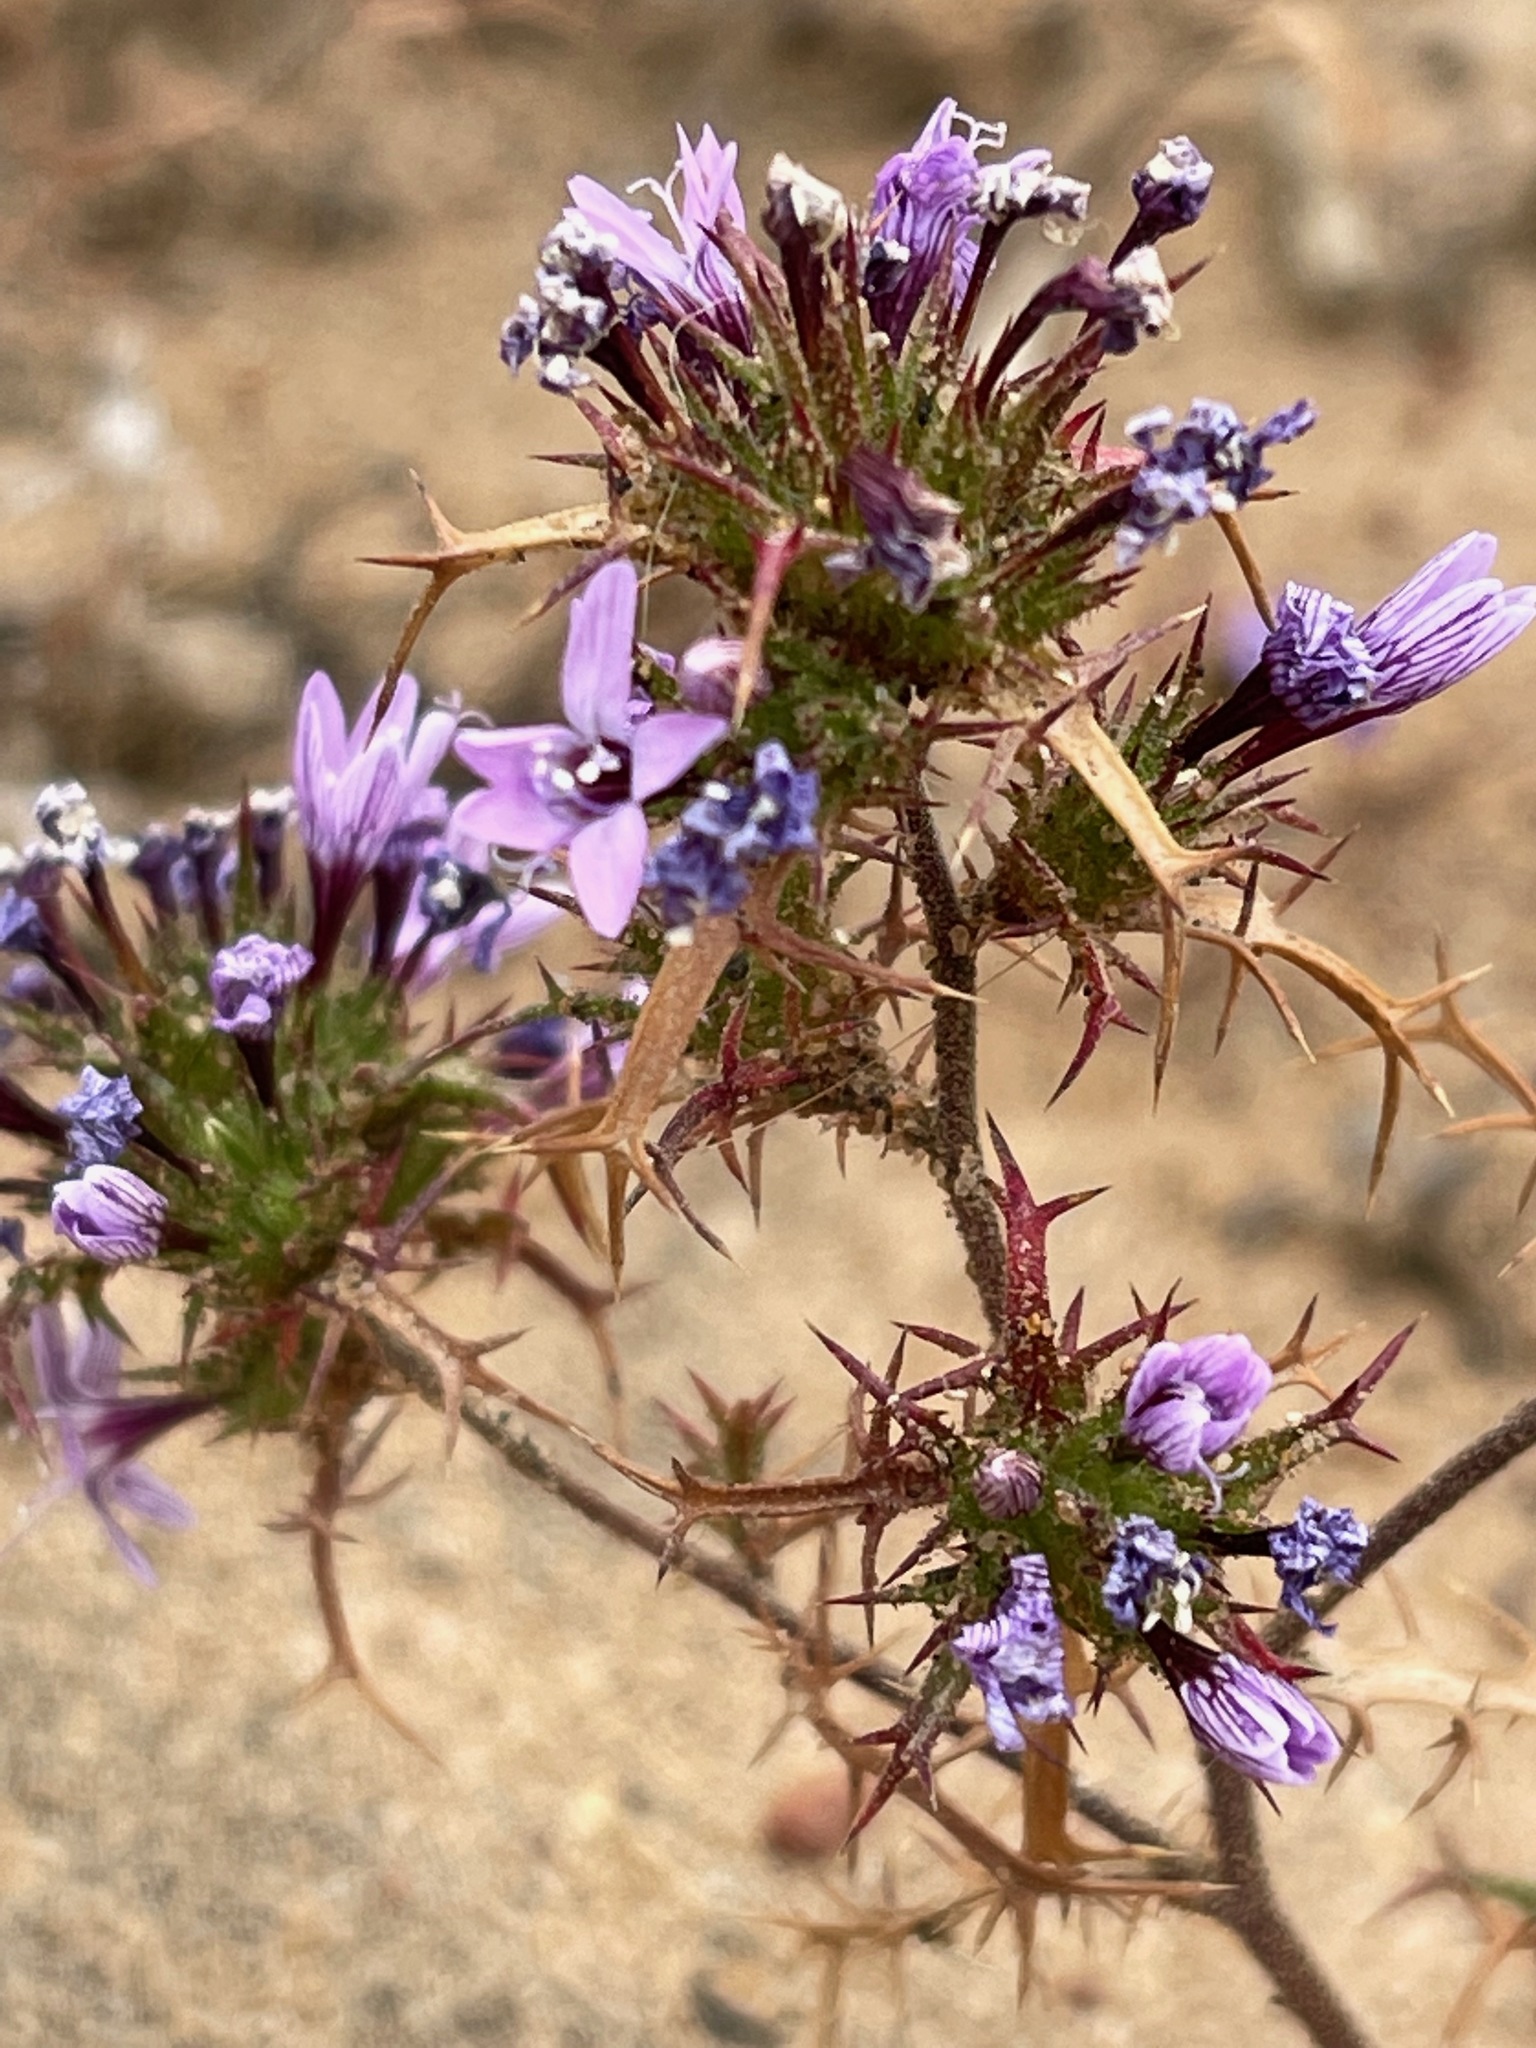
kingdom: Plantae
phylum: Tracheophyta
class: Magnoliopsida
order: Ericales
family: Polemoniaceae
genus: Navarretia
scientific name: Navarretia hamata
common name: Hooked navarretia
